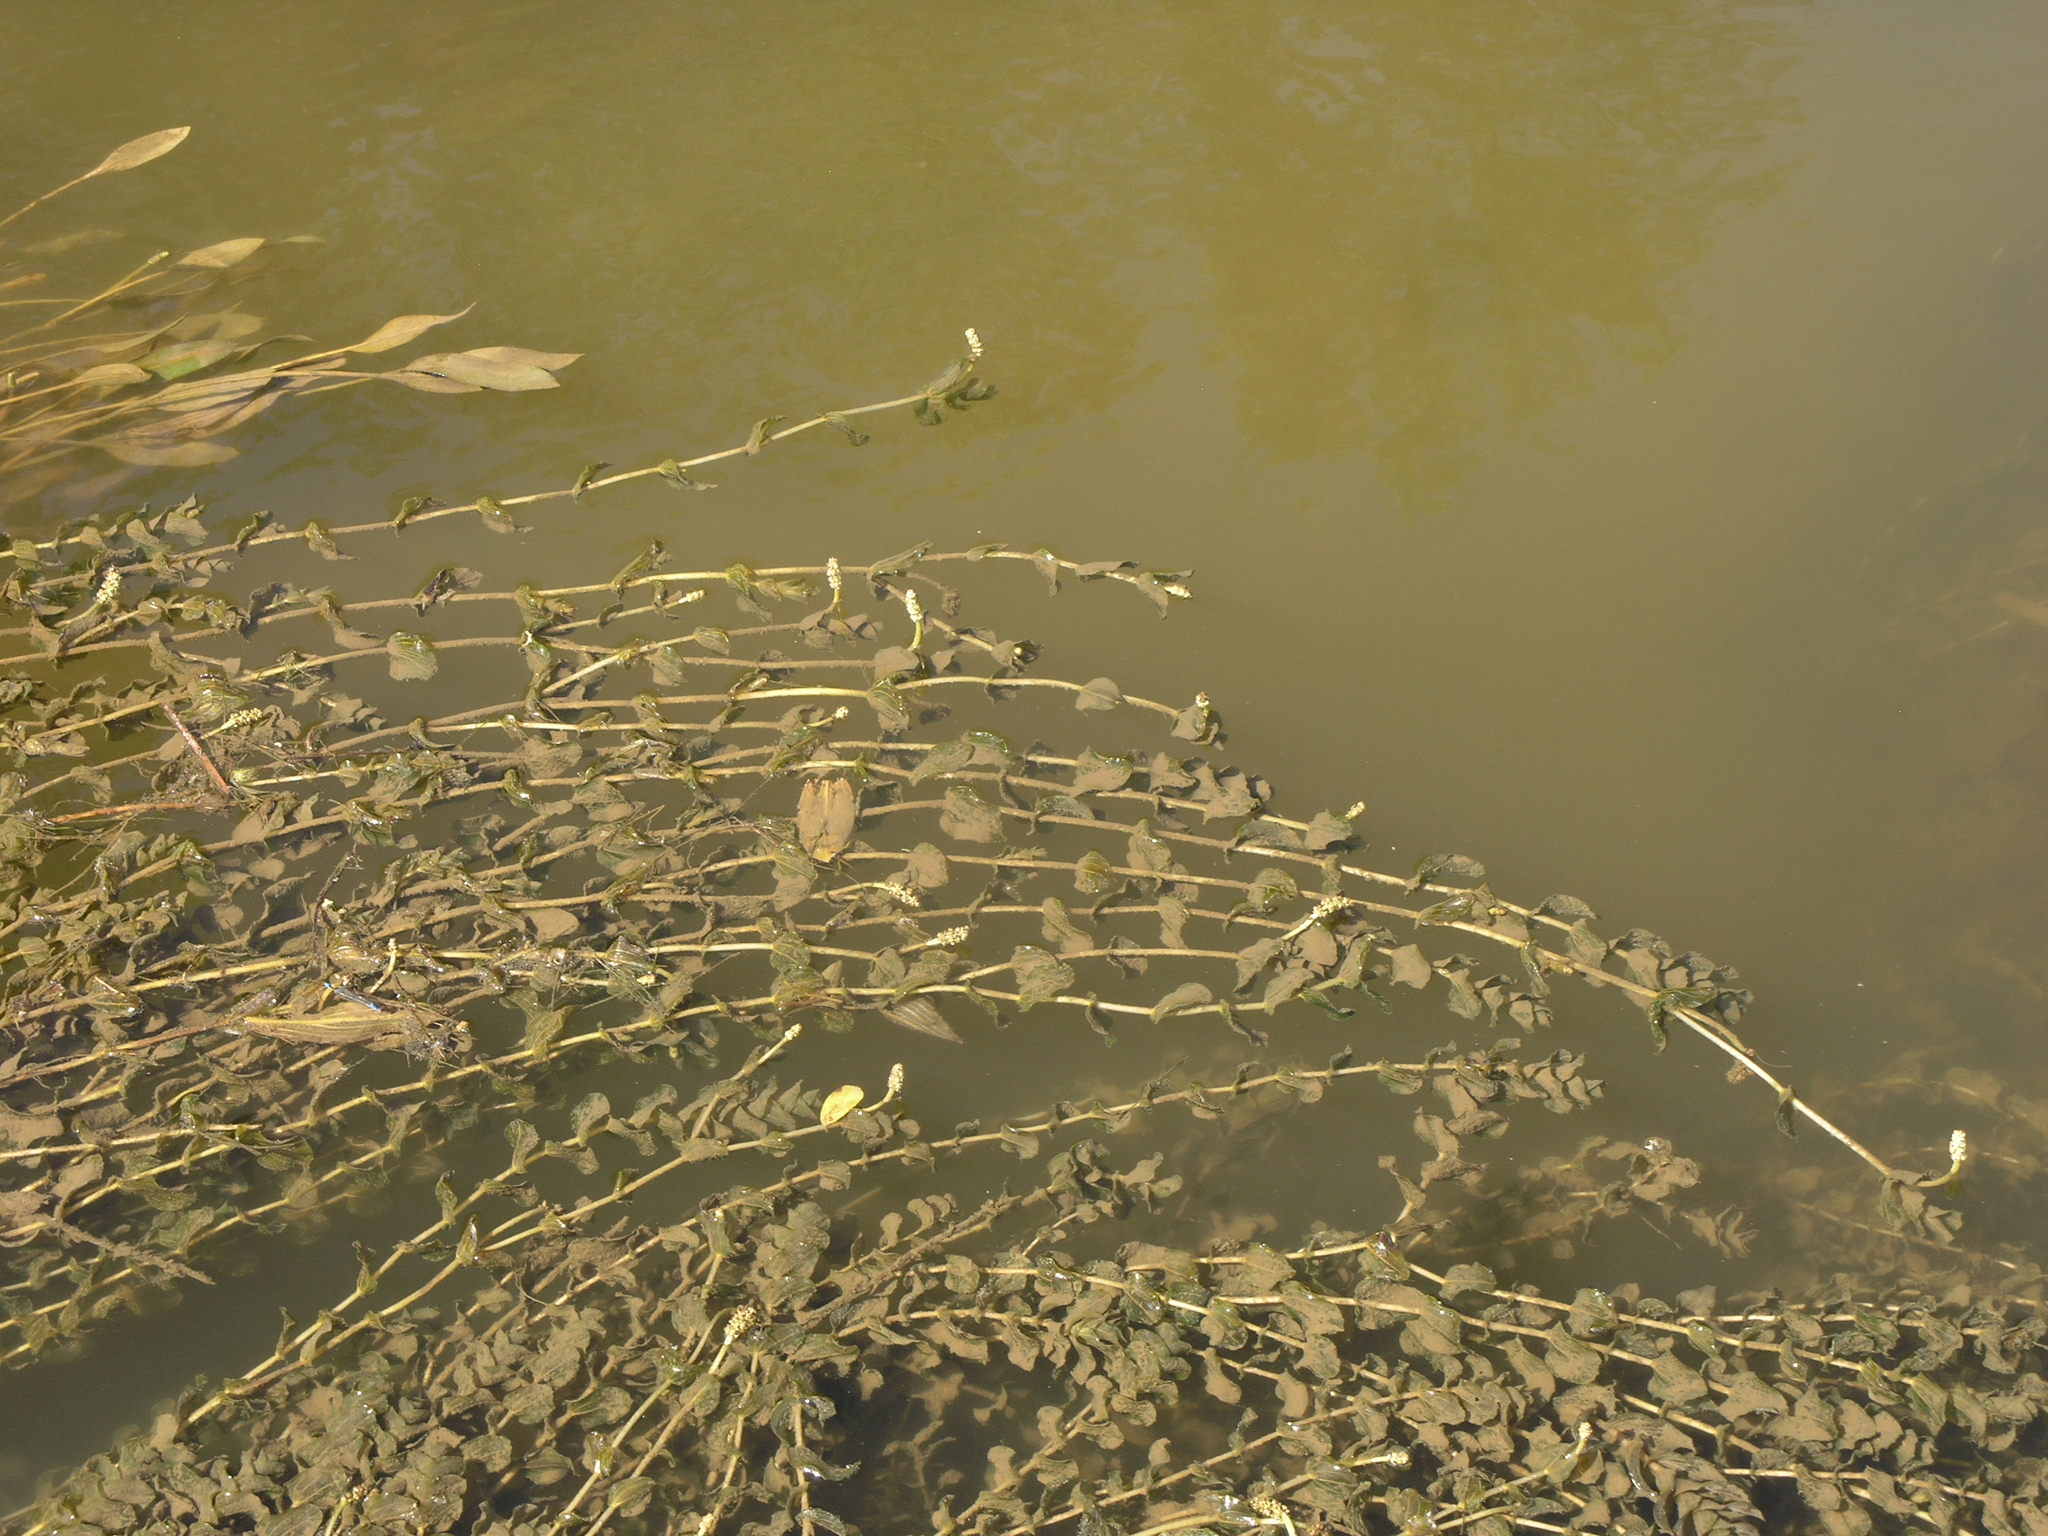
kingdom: Plantae
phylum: Tracheophyta
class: Liliopsida
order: Alismatales
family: Potamogetonaceae
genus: Potamogeton
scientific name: Potamogeton perfoliatus
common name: Perfoliate pondweed
